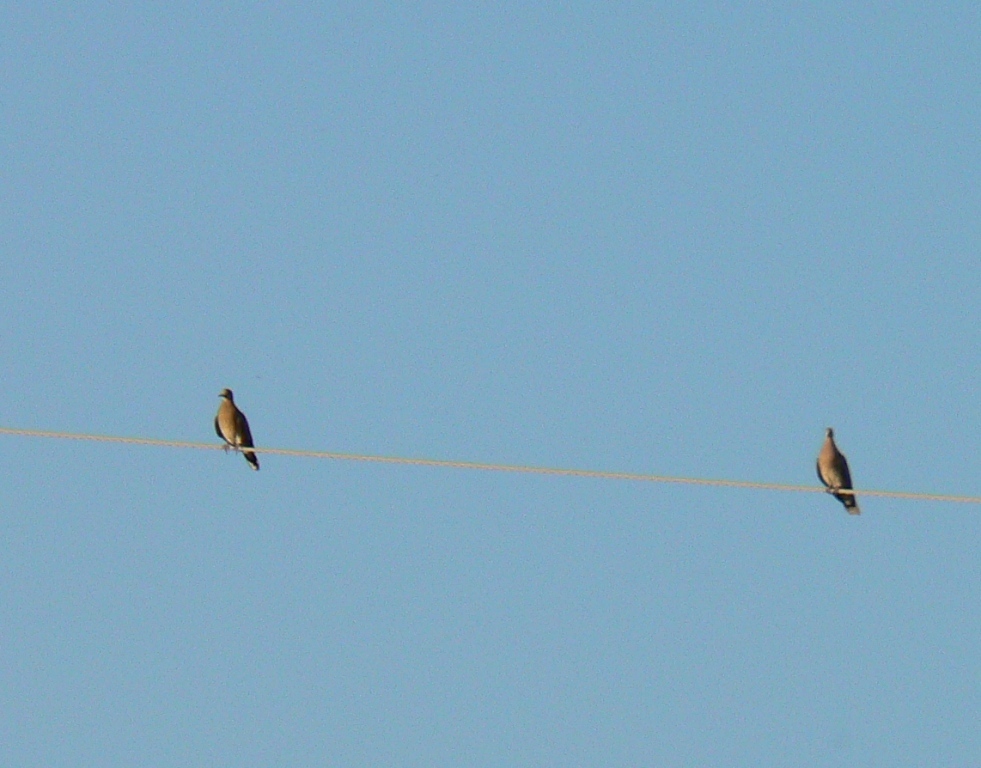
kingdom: Animalia
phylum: Chordata
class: Aves
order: Columbiformes
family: Columbidae
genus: Streptopelia
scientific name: Streptopelia orientalis
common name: Oriental turtle dove
